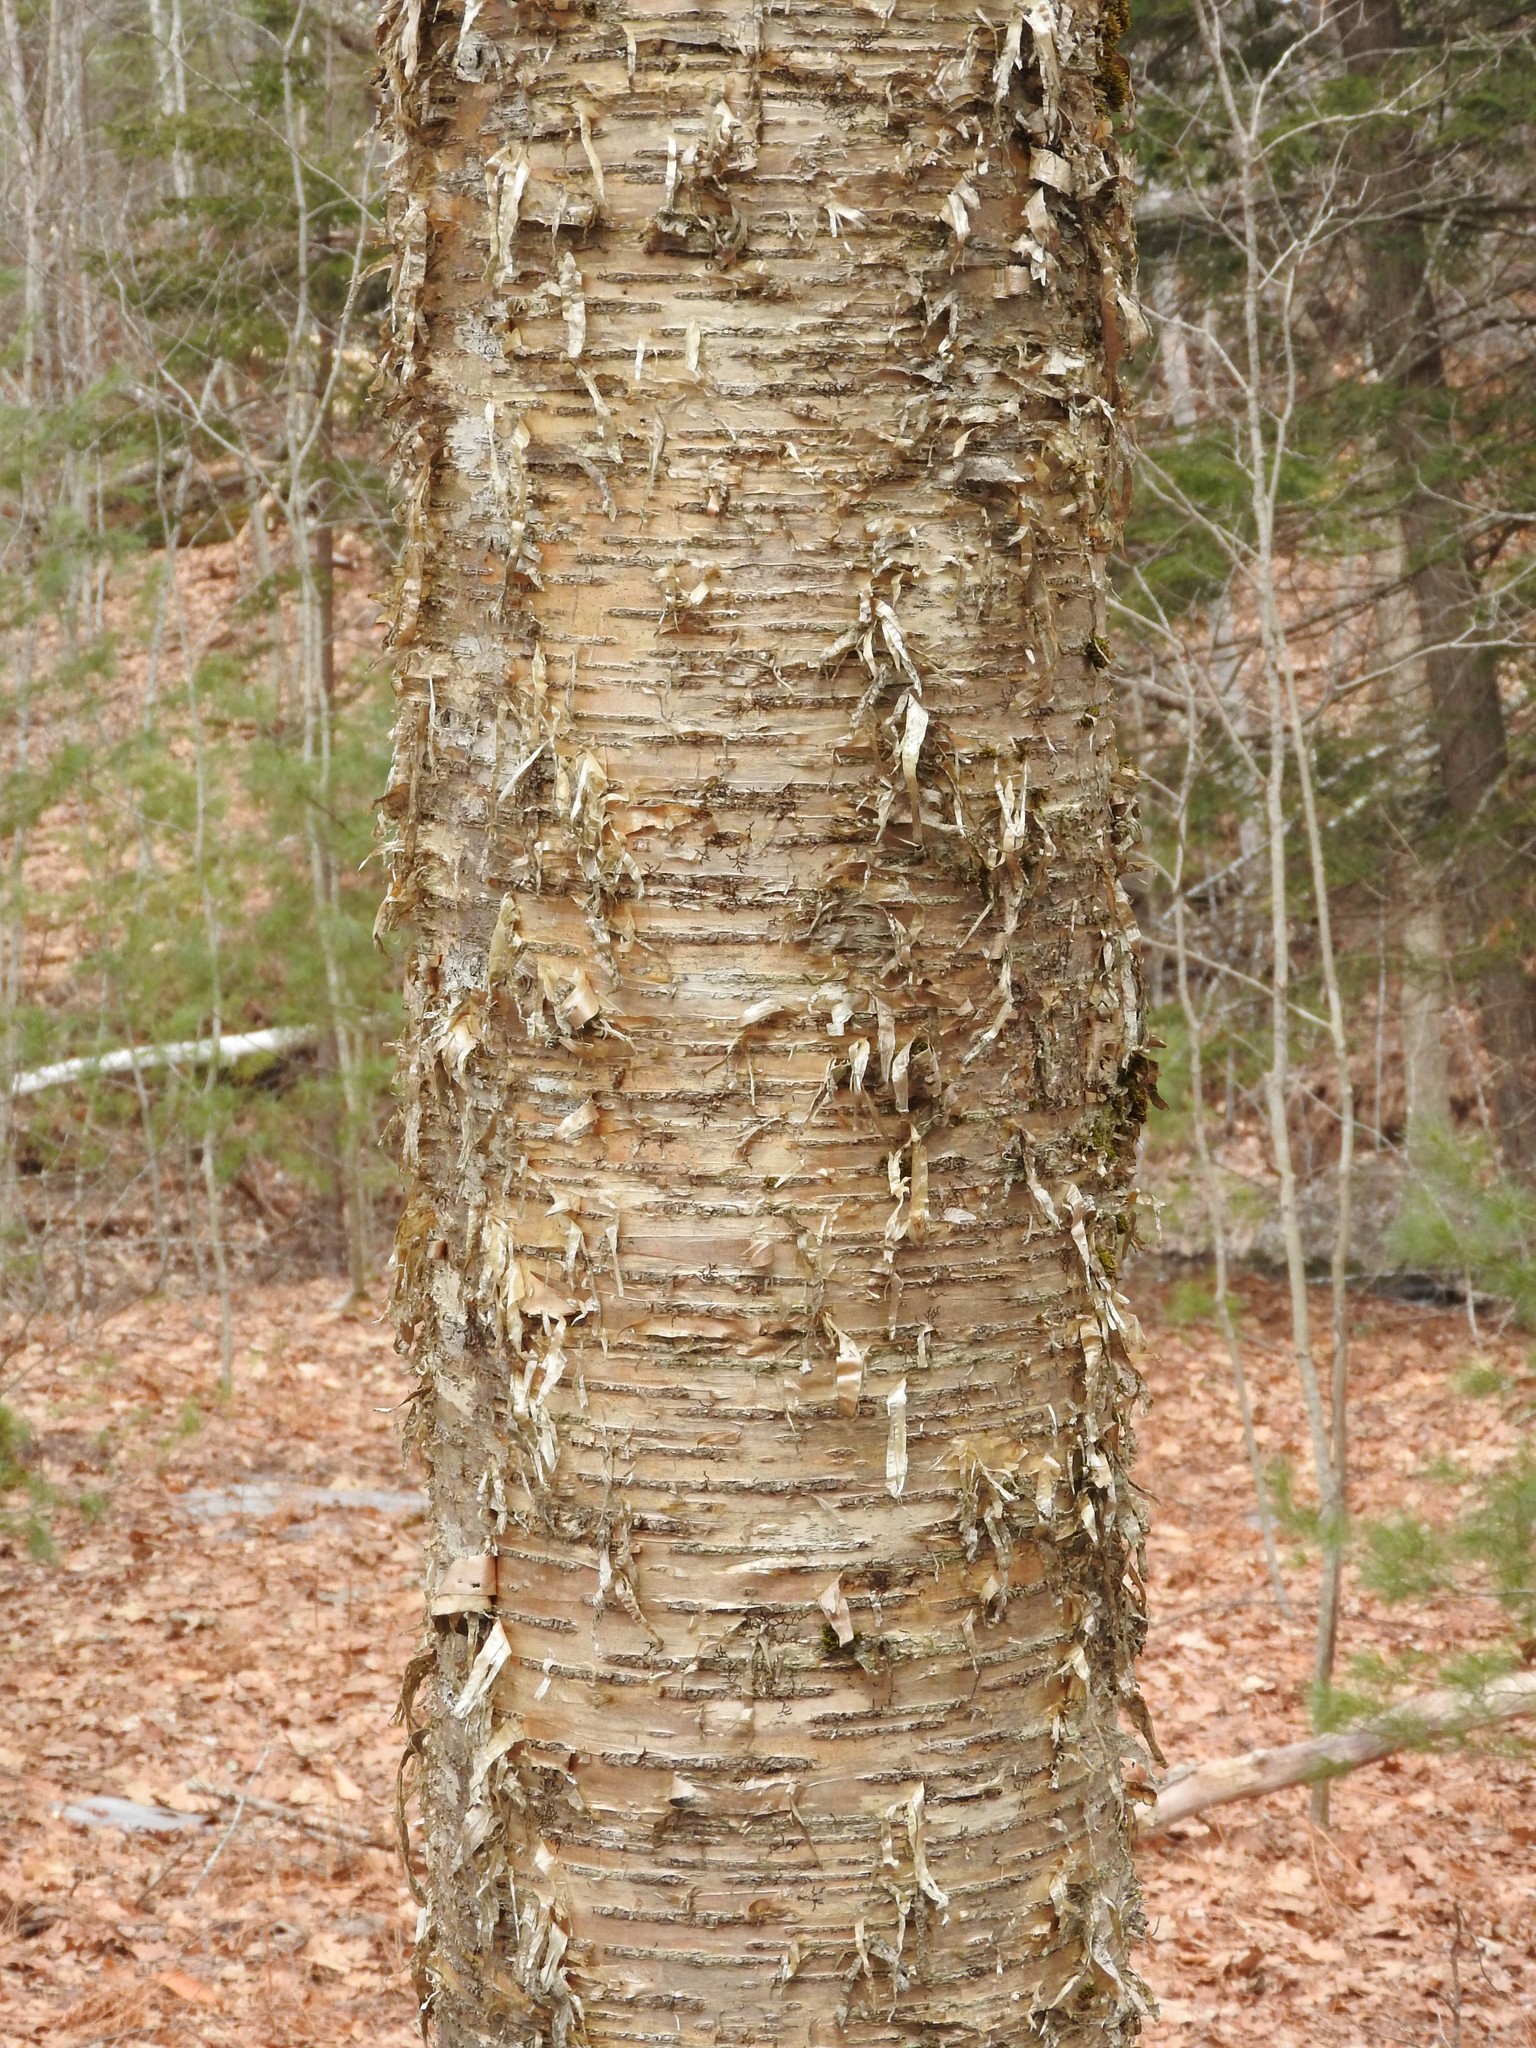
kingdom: Plantae
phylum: Tracheophyta
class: Magnoliopsida
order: Fagales
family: Betulaceae
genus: Betula
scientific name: Betula alleghaniensis
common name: Yellow birch
